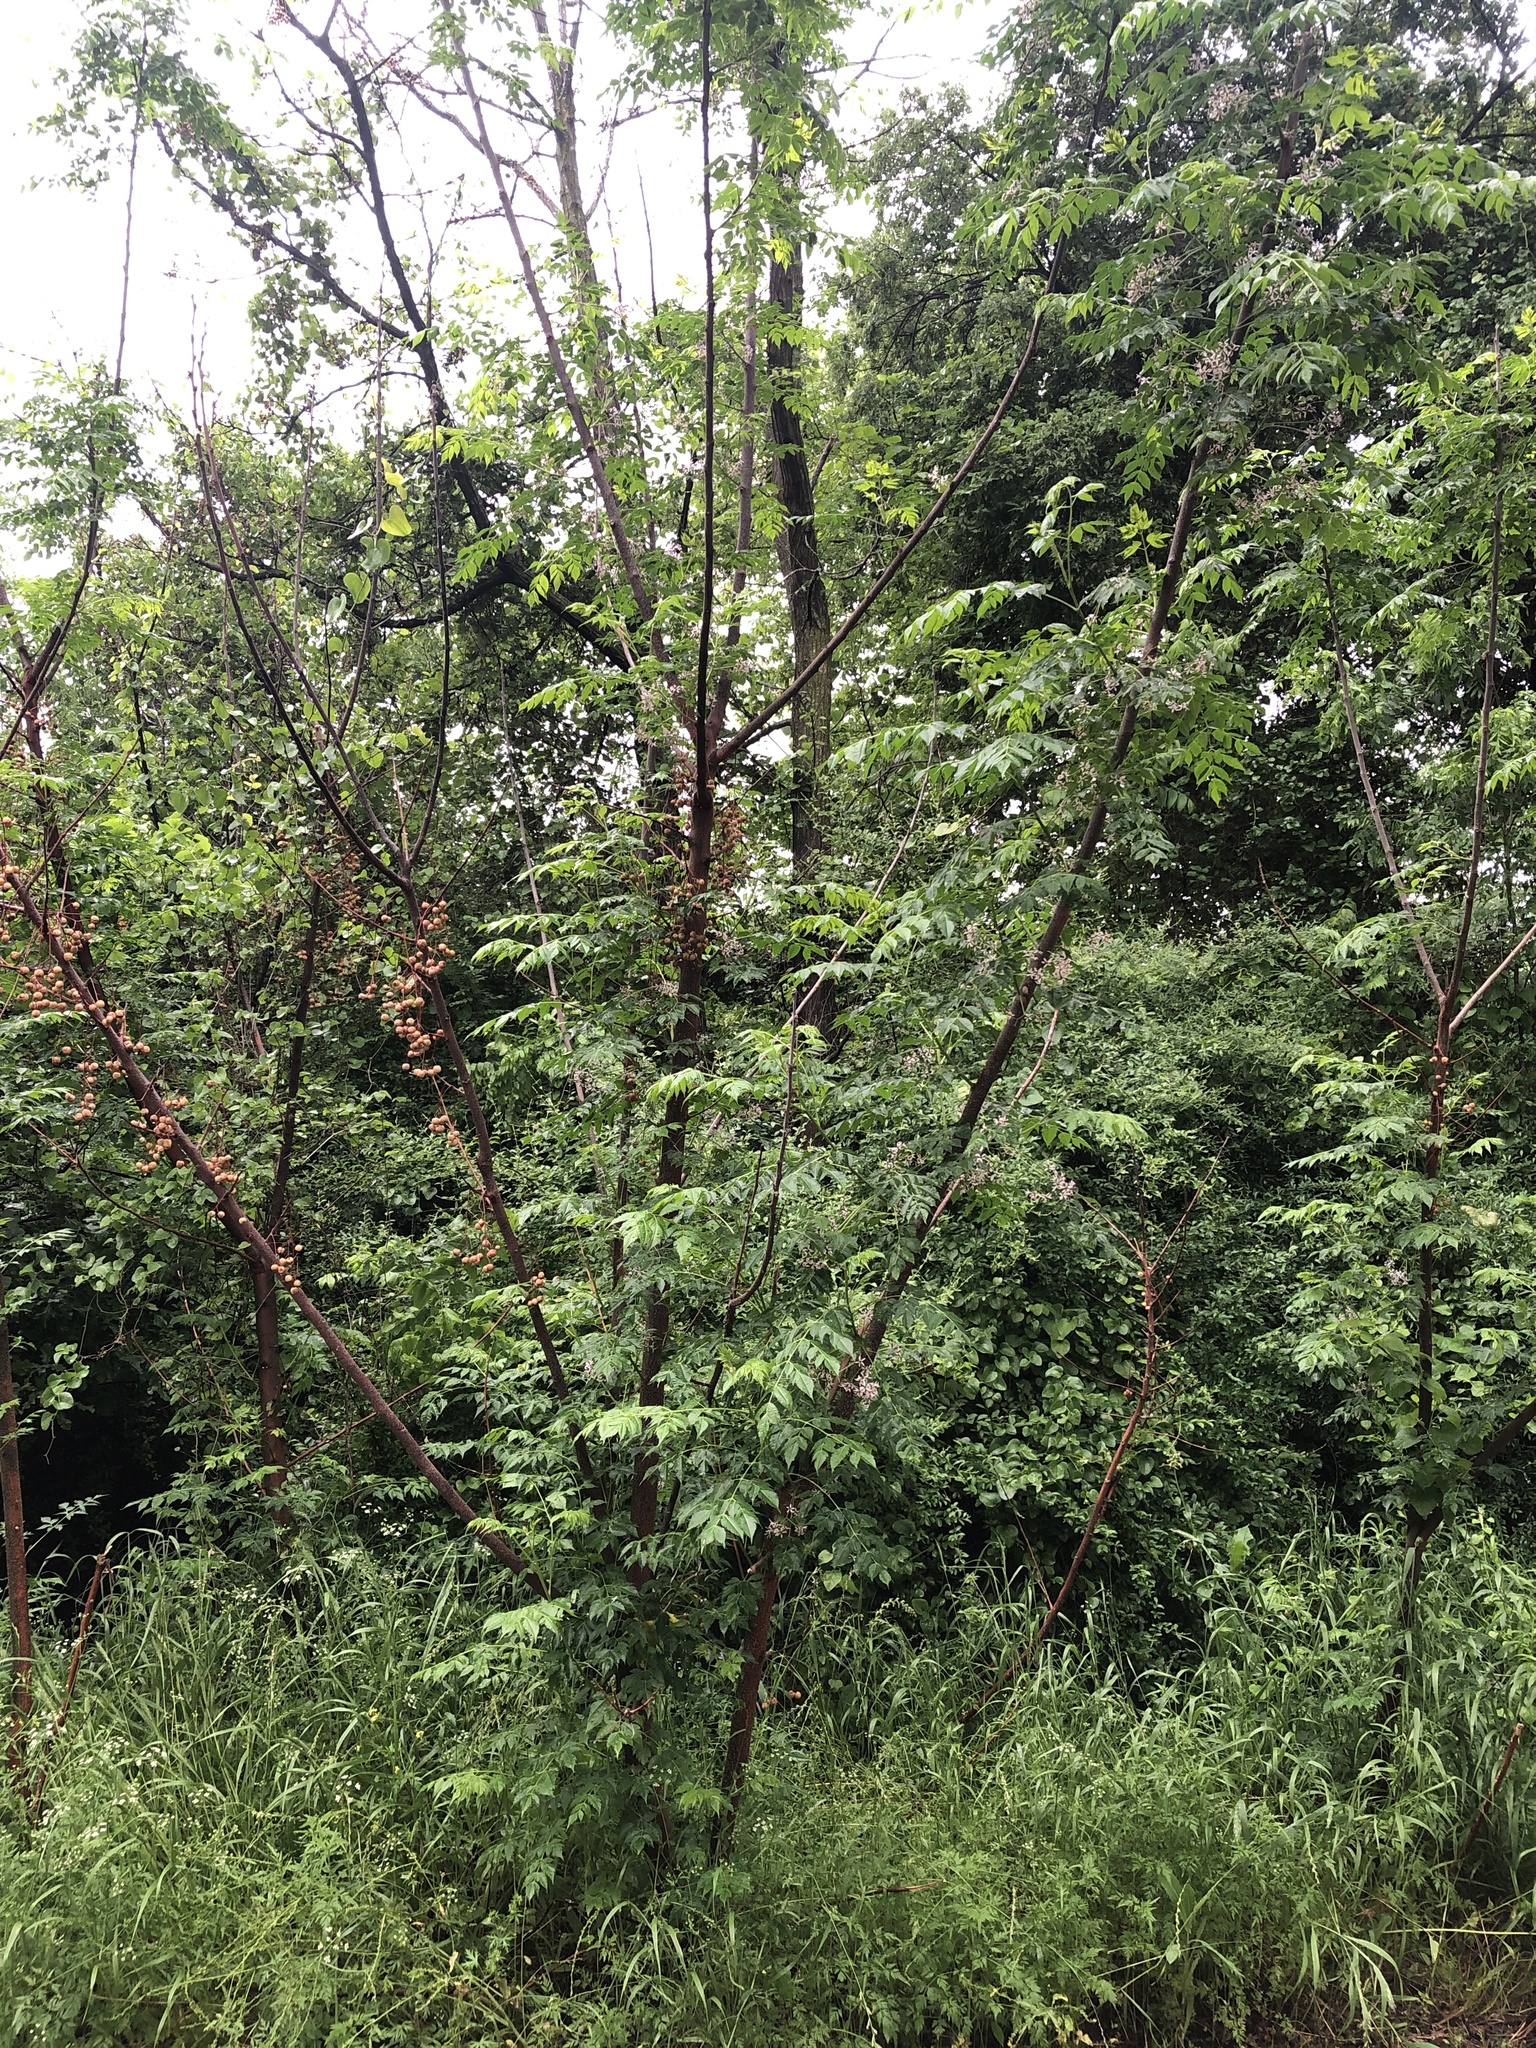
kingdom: Plantae
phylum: Tracheophyta
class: Magnoliopsida
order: Sapindales
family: Meliaceae
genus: Melia
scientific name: Melia azedarach
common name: Chinaberrytree
